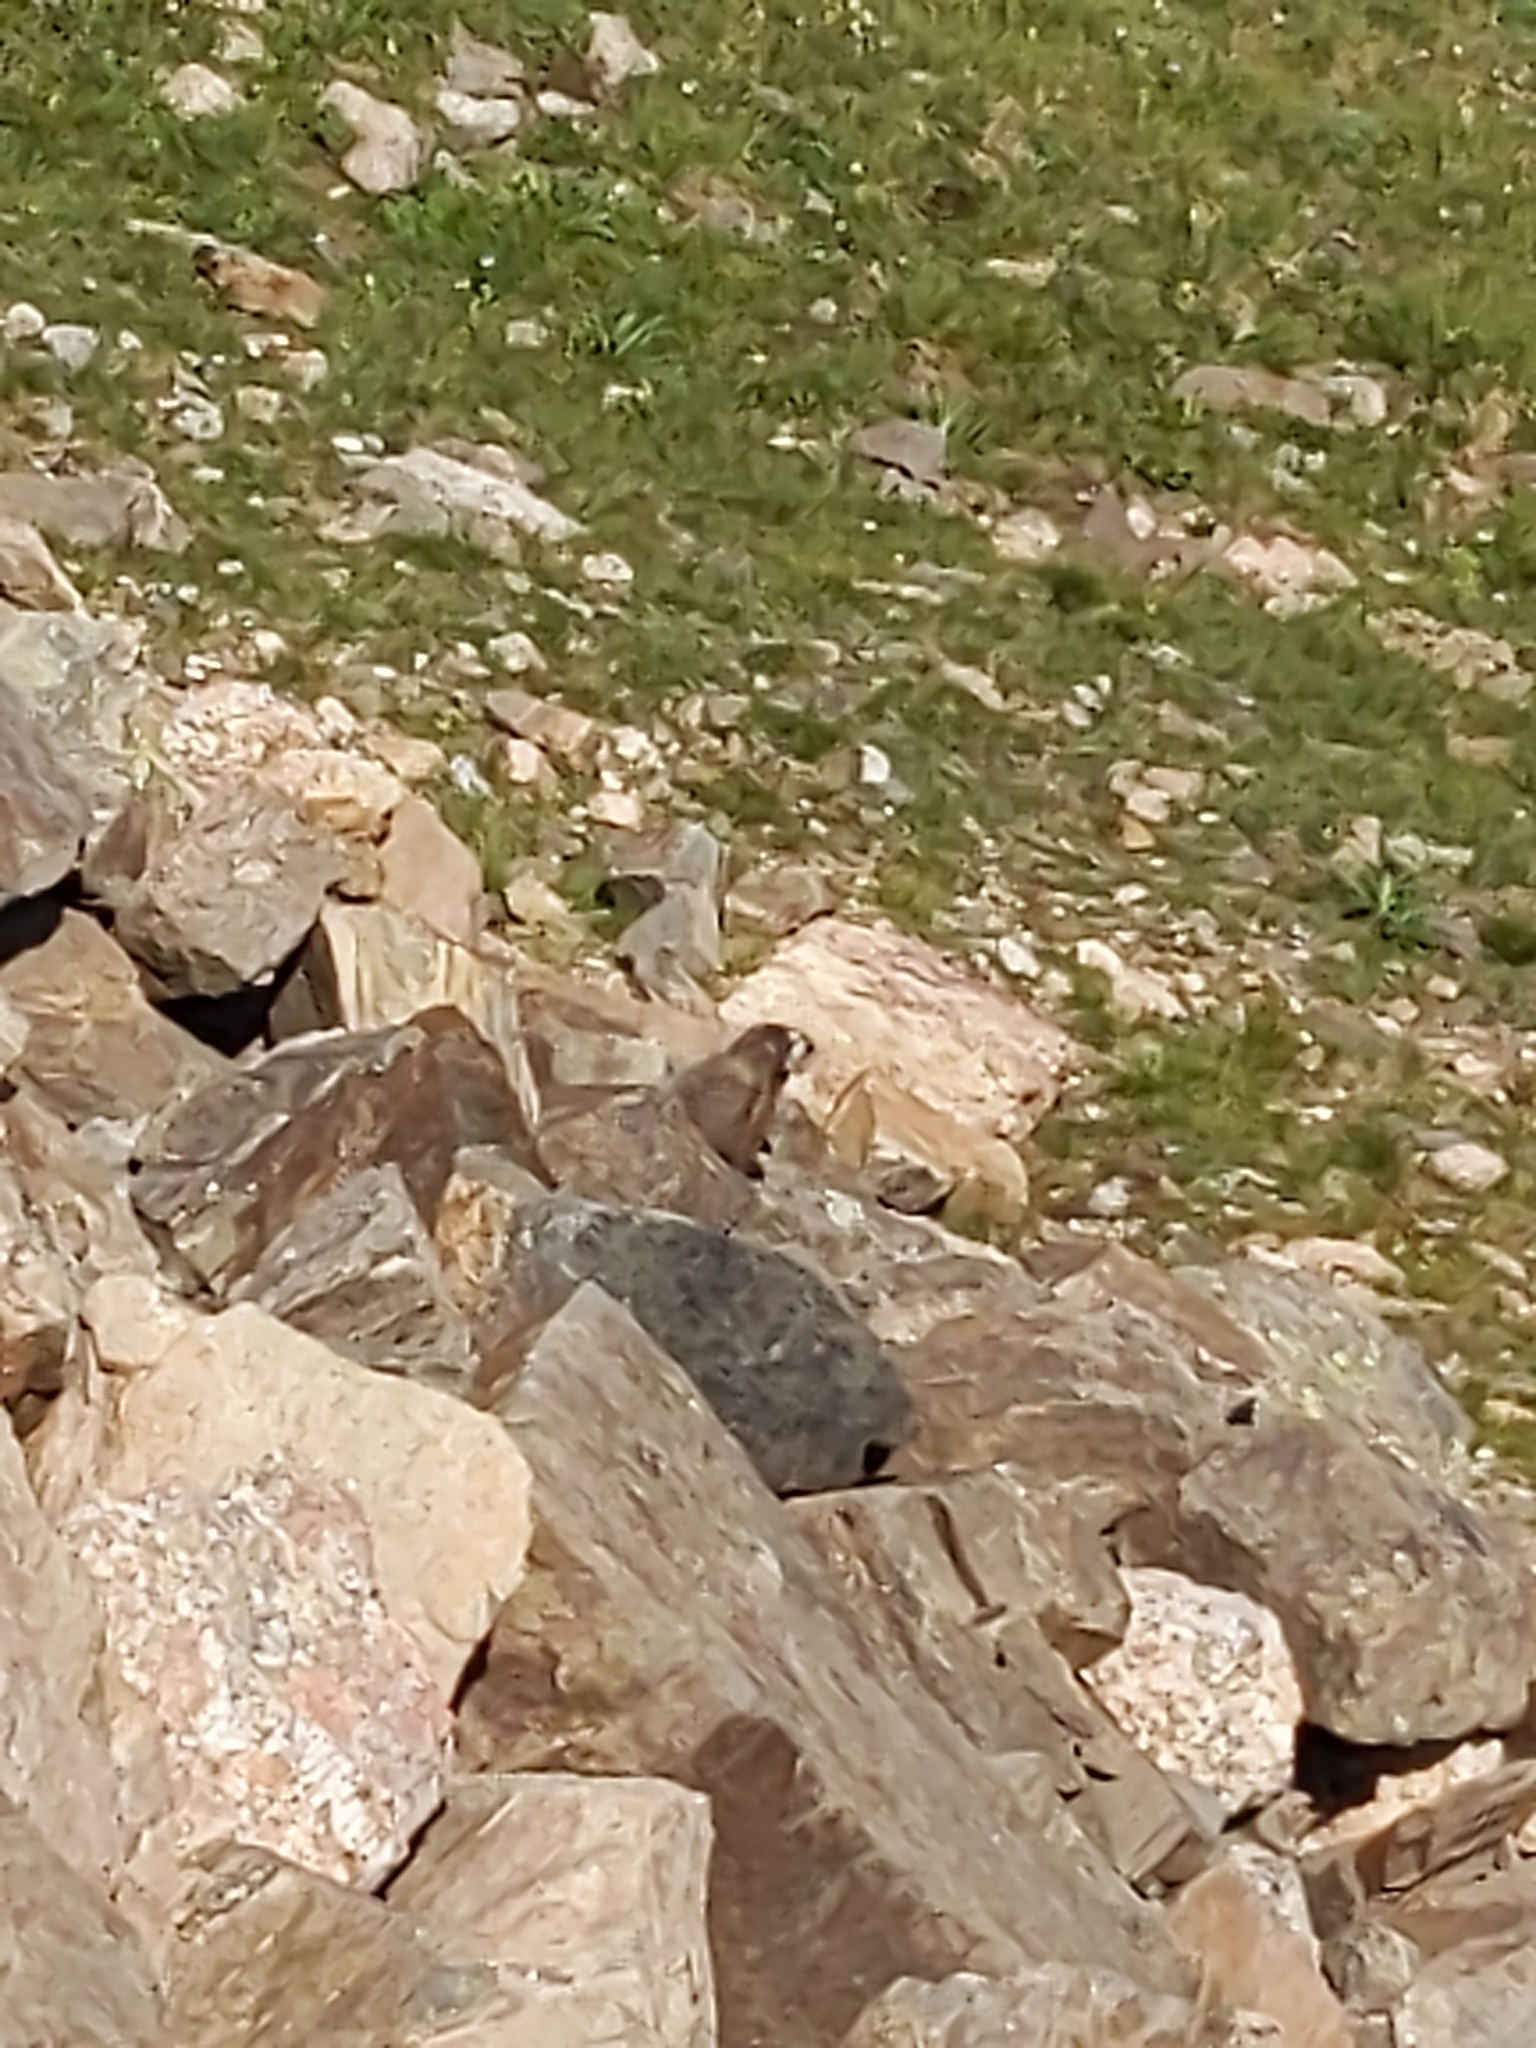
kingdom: Animalia
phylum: Chordata
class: Mammalia
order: Rodentia
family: Sciuridae
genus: Marmota
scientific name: Marmota flaviventris
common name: Yellow-bellied marmot
